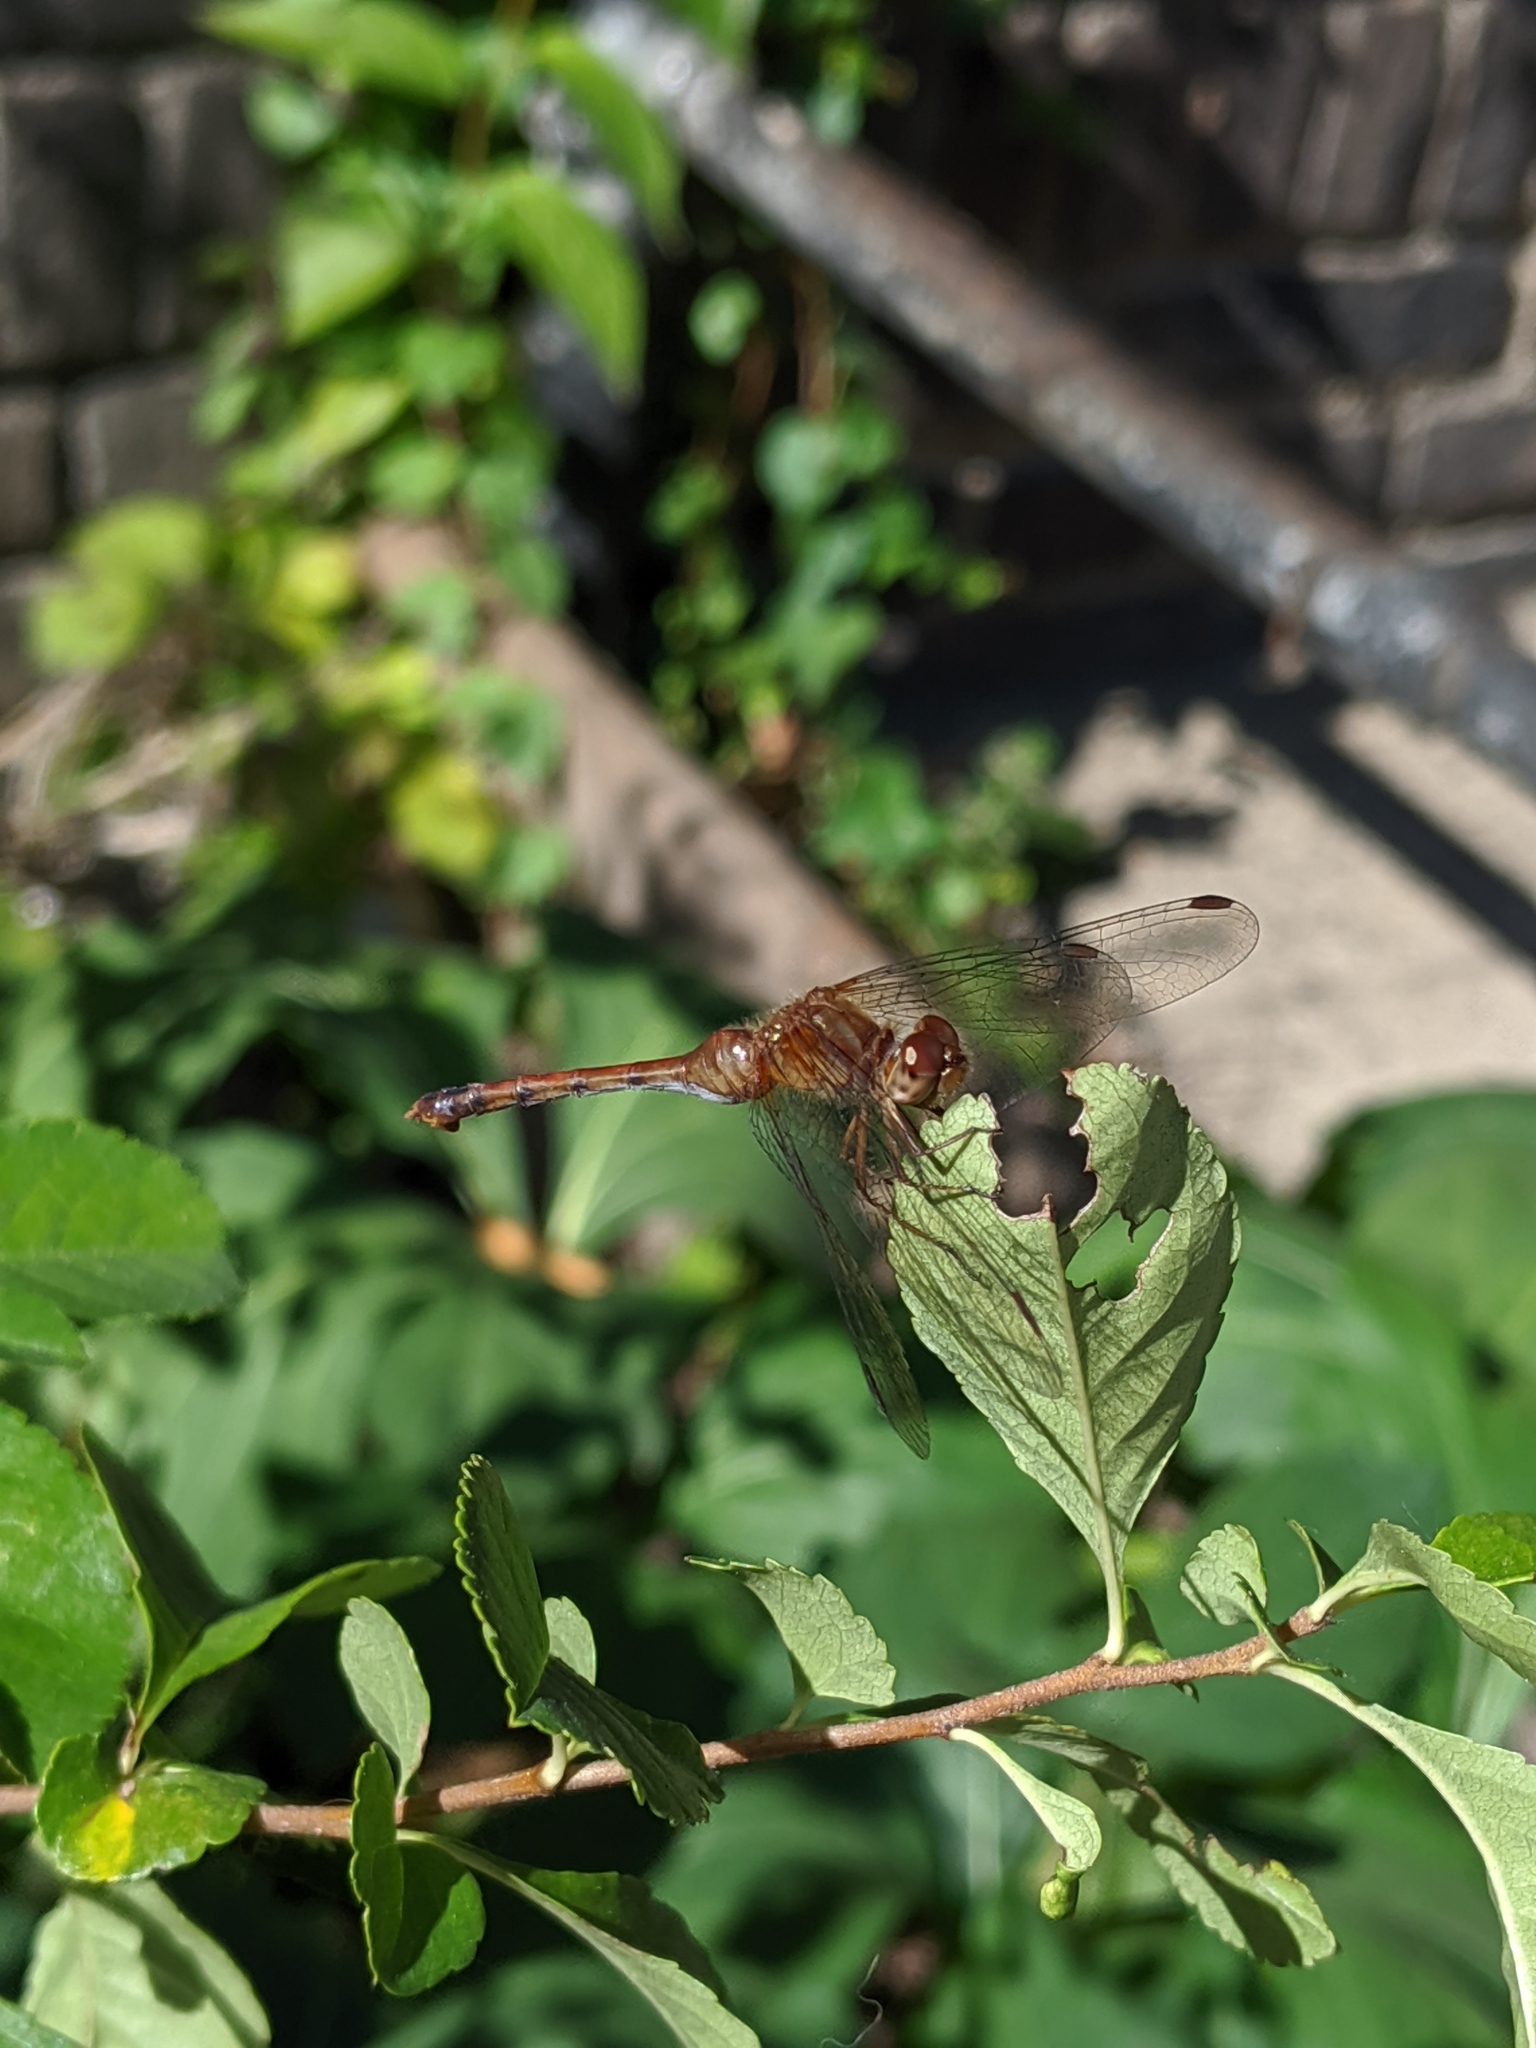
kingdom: Animalia
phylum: Arthropoda
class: Insecta
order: Odonata
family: Libellulidae
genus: Sympetrum
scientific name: Sympetrum vicinum
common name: Autumn meadowhawk
